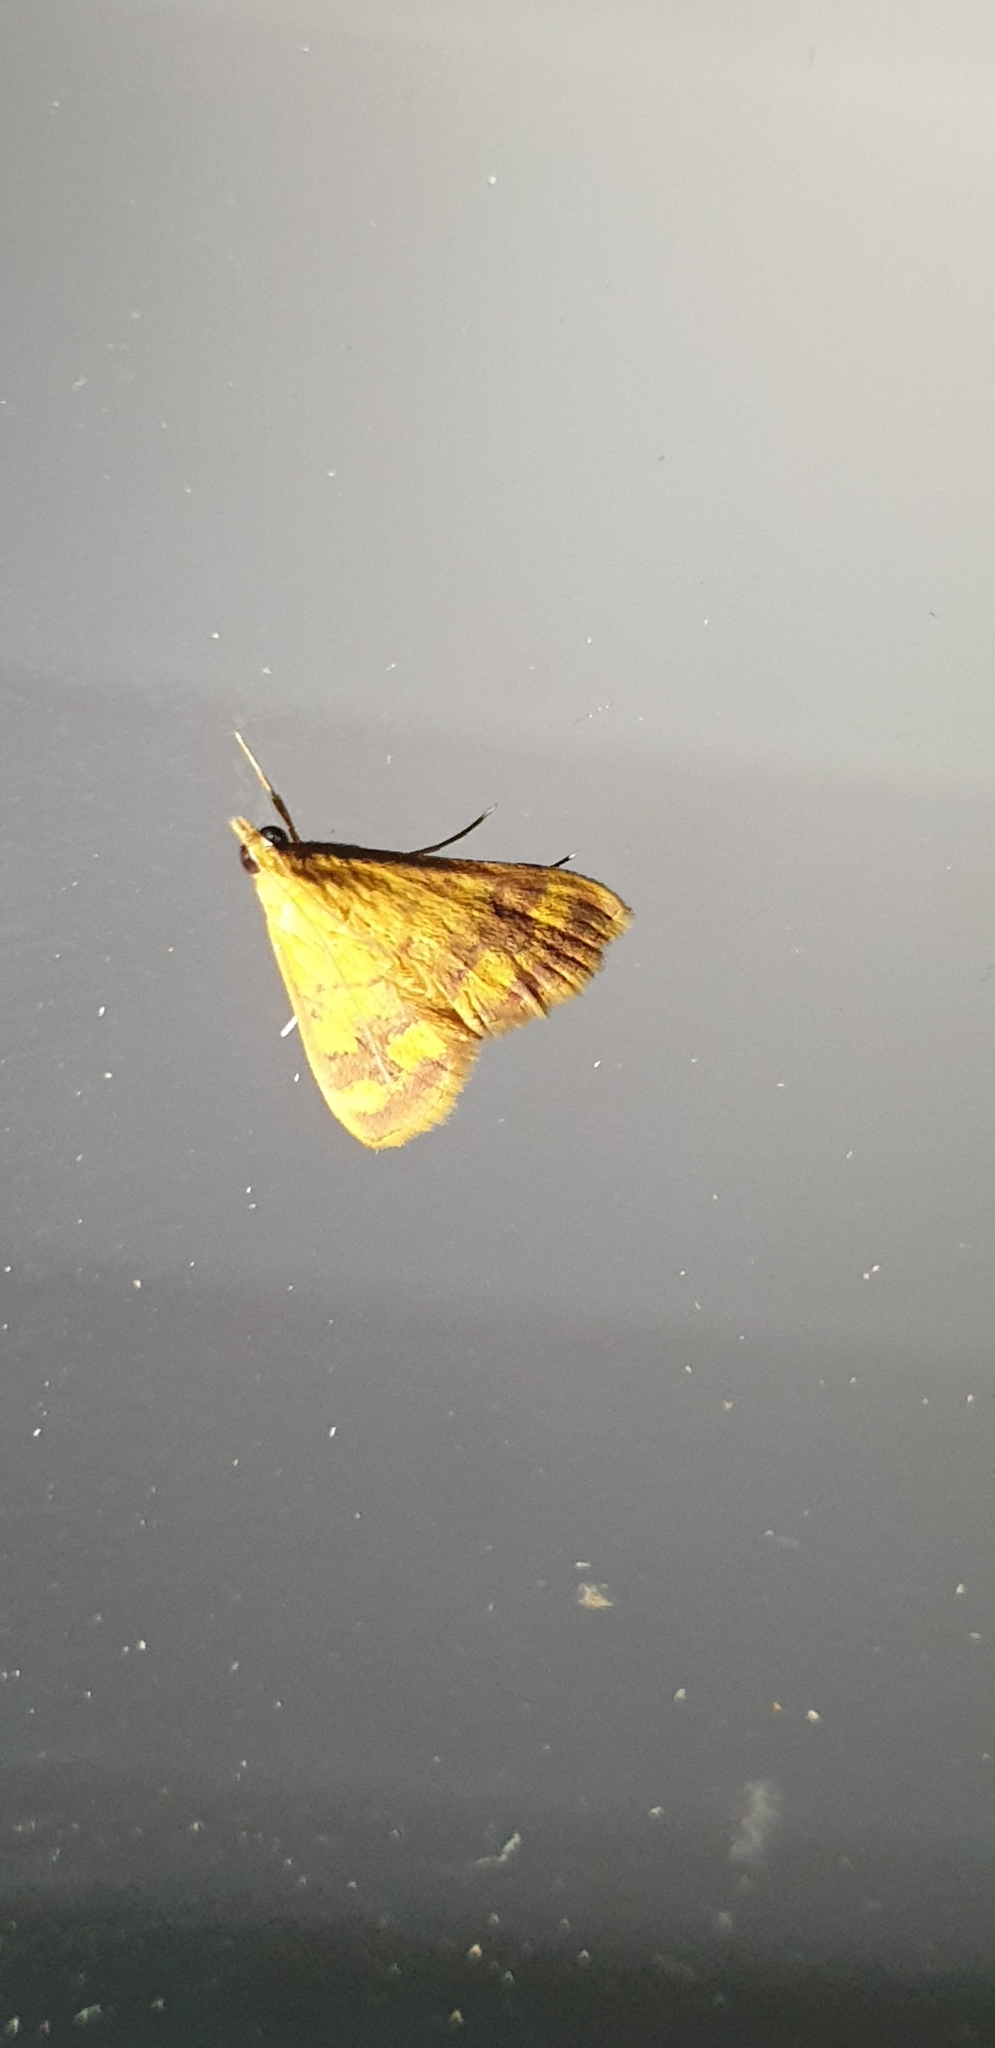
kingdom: Animalia
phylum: Arthropoda
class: Insecta
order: Lepidoptera
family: Crambidae
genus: Pyrausta
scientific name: Pyrausta phoenicealis
